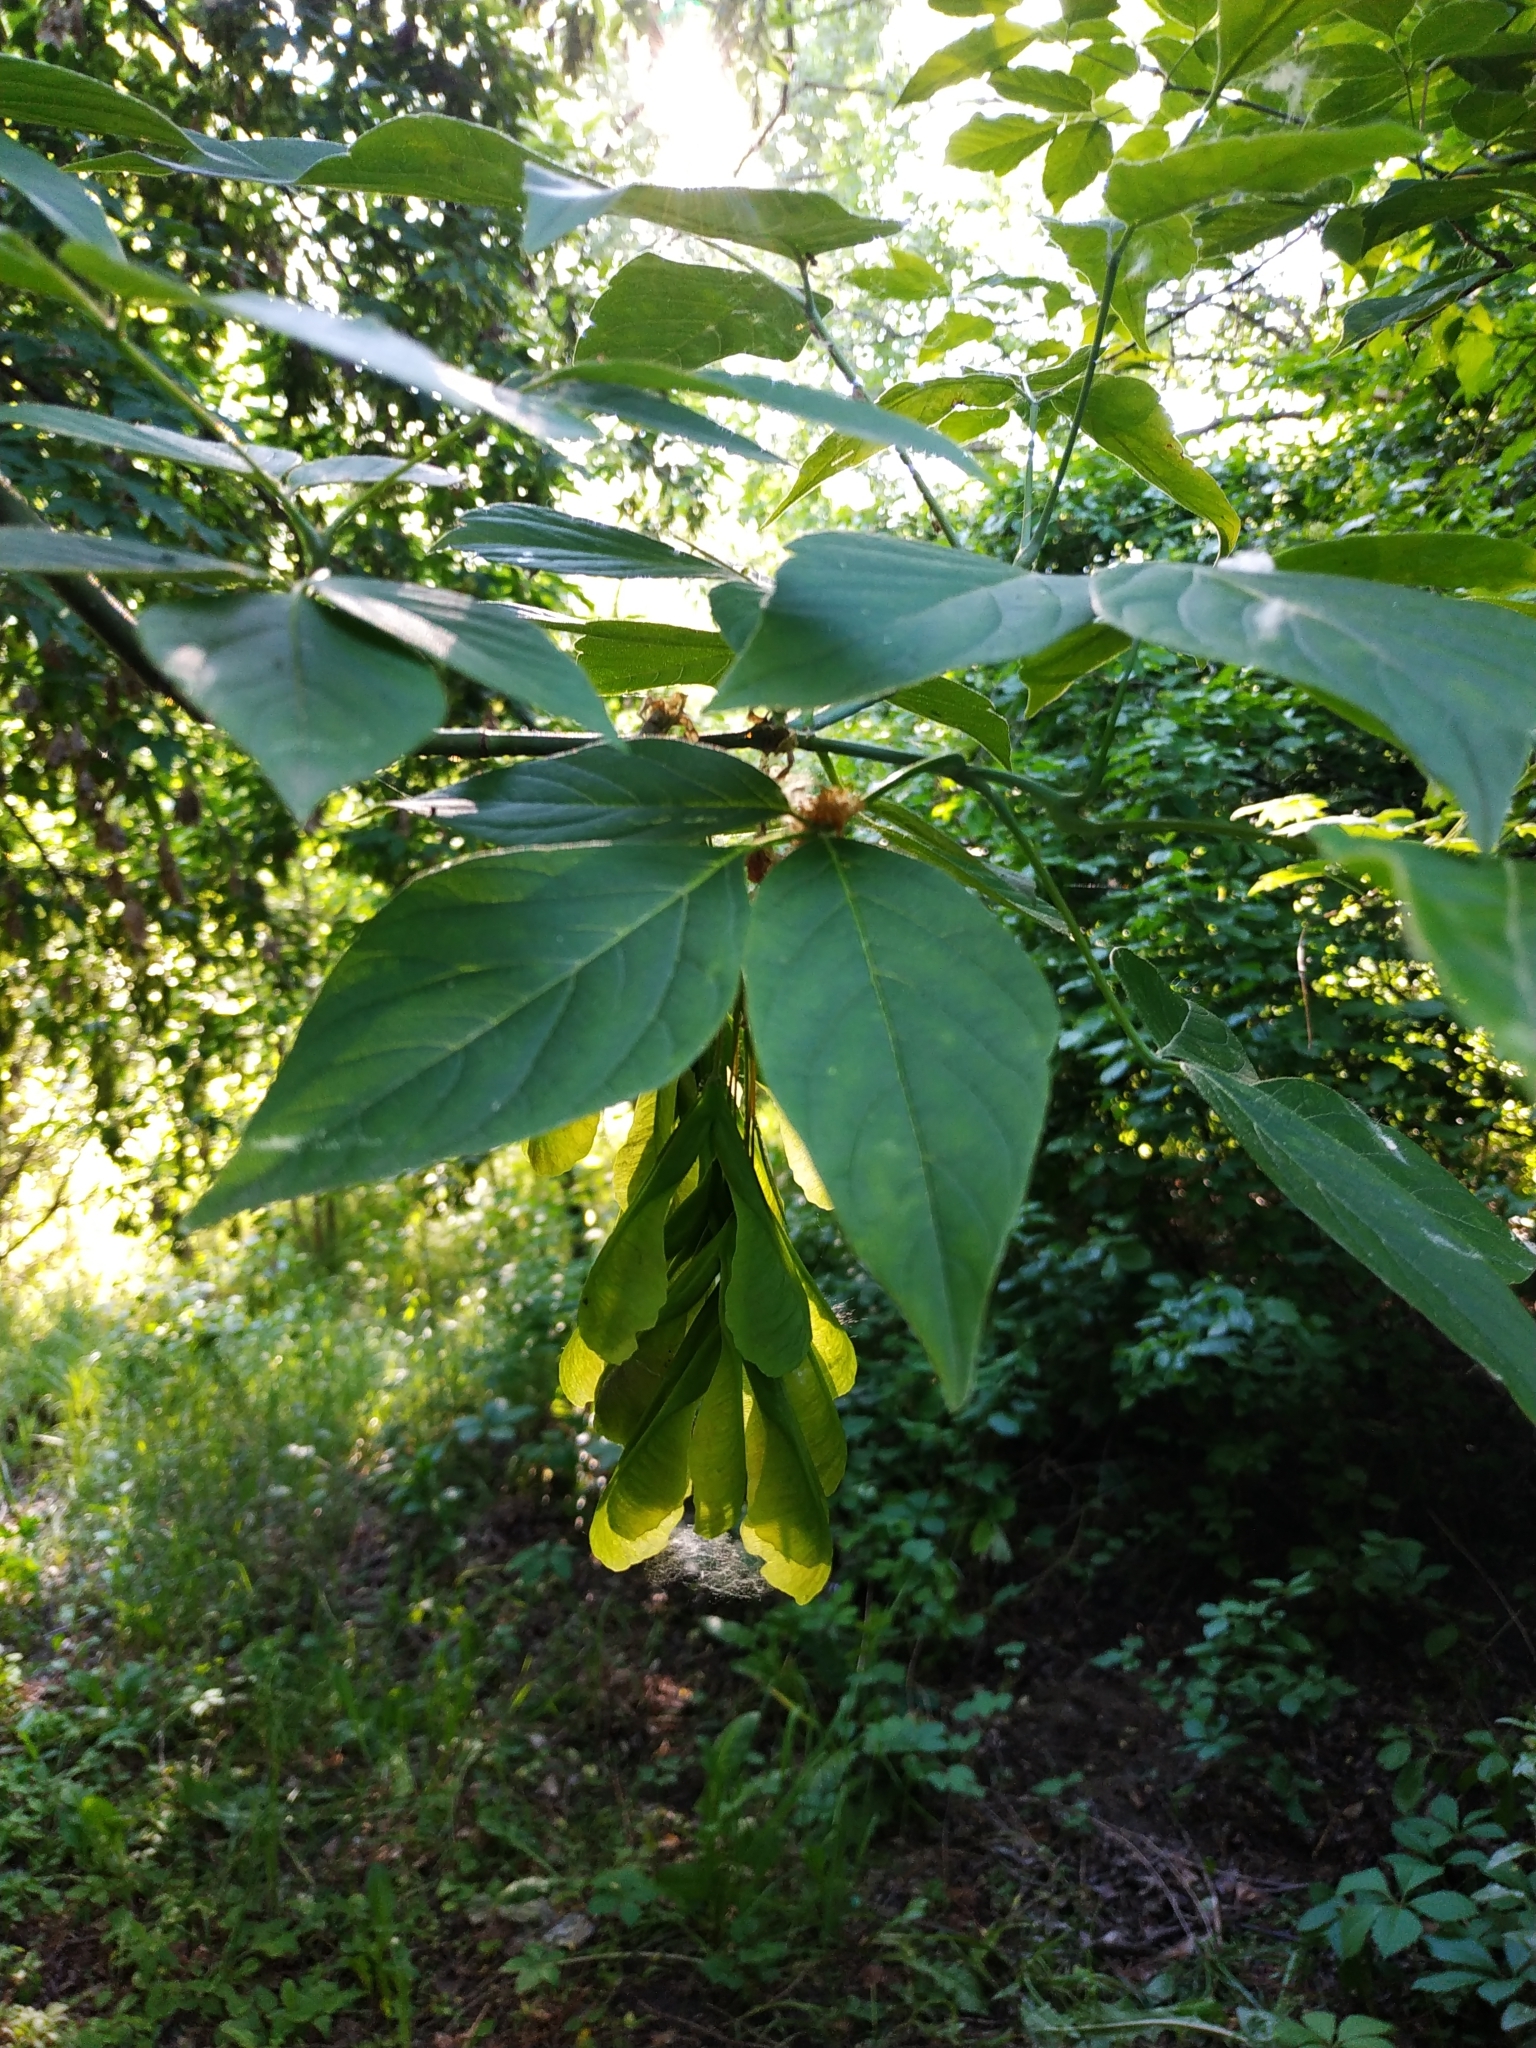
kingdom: Plantae
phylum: Tracheophyta
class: Magnoliopsida
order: Sapindales
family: Sapindaceae
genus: Acer
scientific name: Acer negundo
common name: Ashleaf maple
